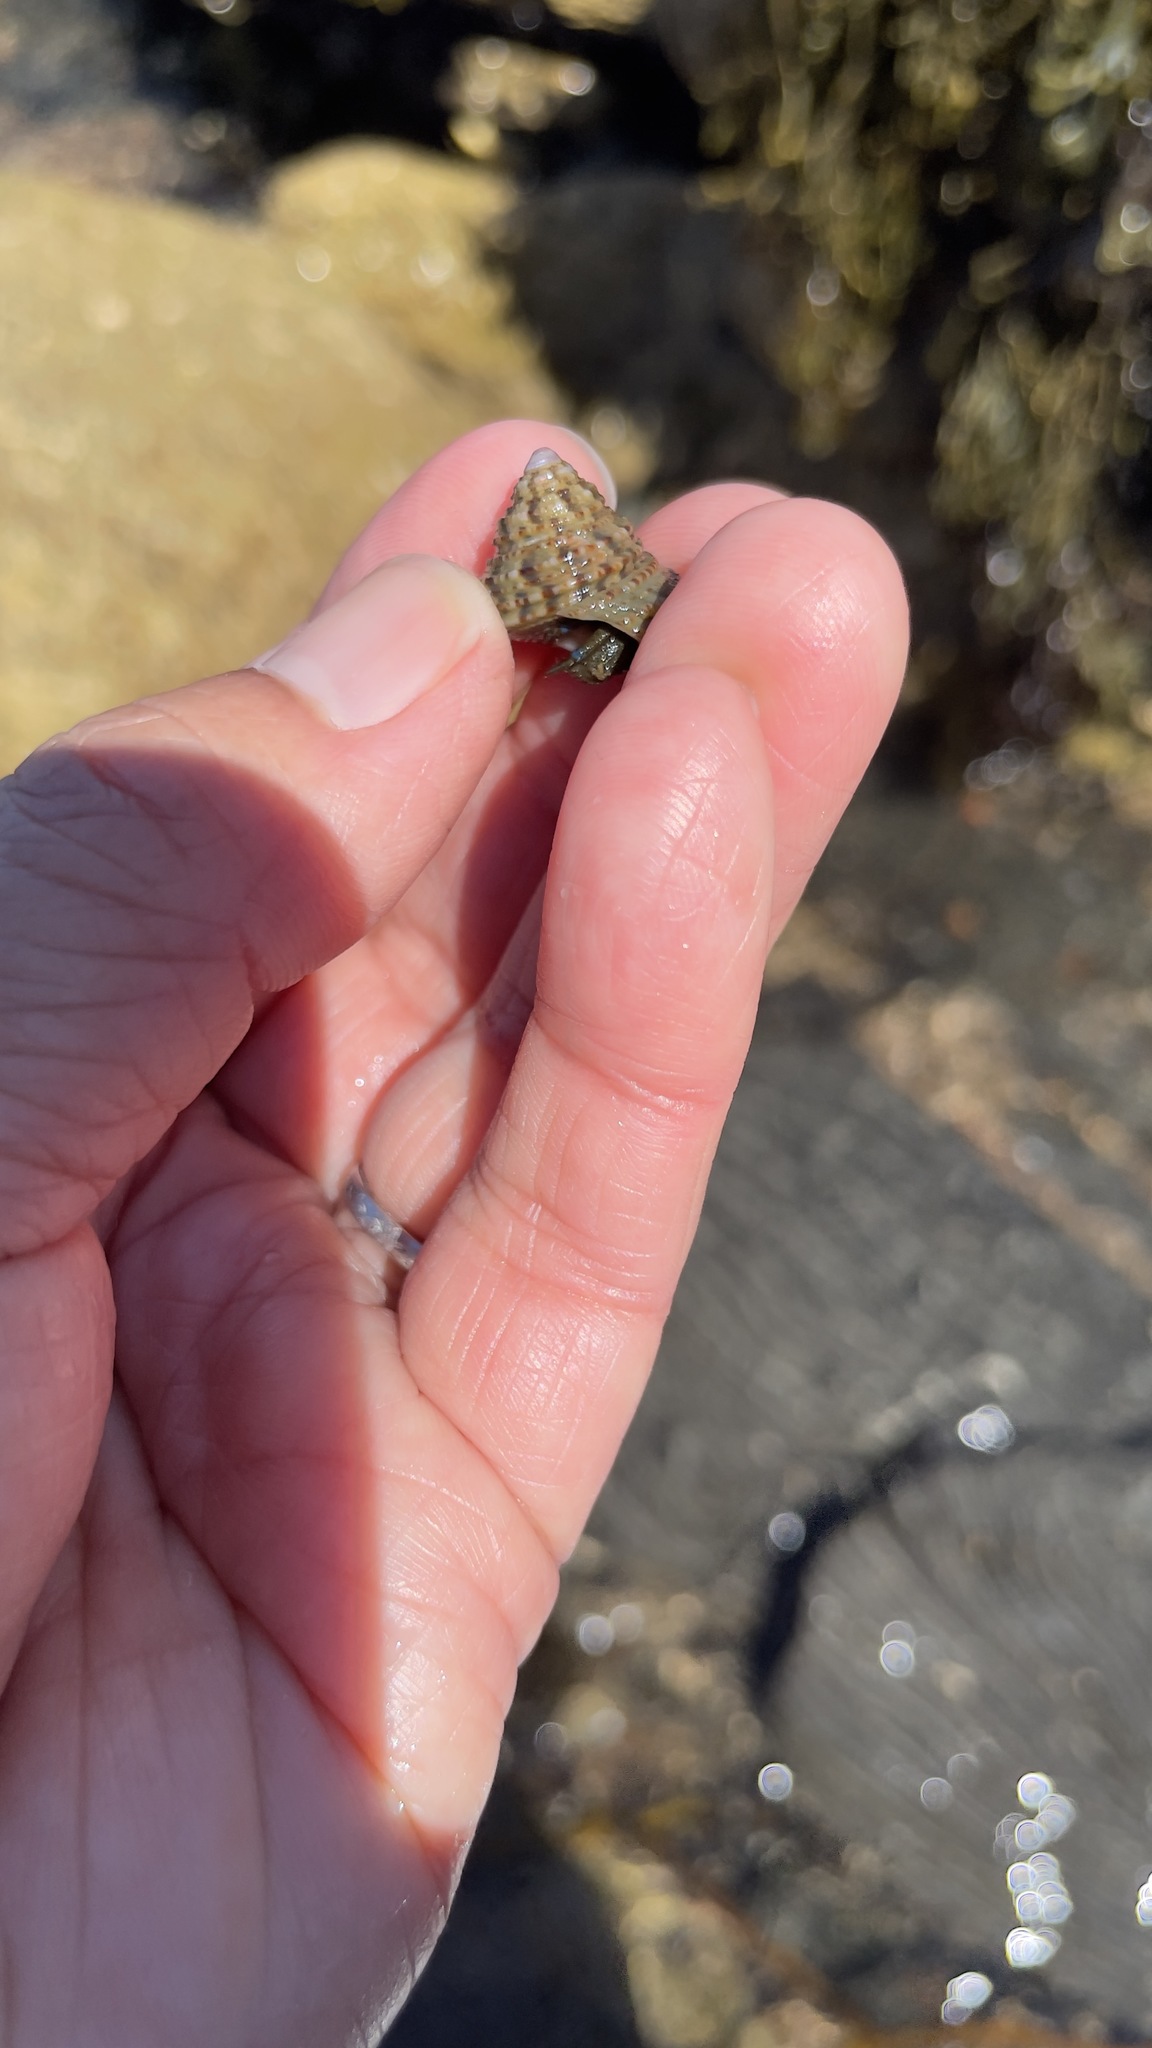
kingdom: Animalia
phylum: Arthropoda
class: Malacostraca
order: Decapoda
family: Paguridae
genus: Pagurus
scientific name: Pagurus samuelis
